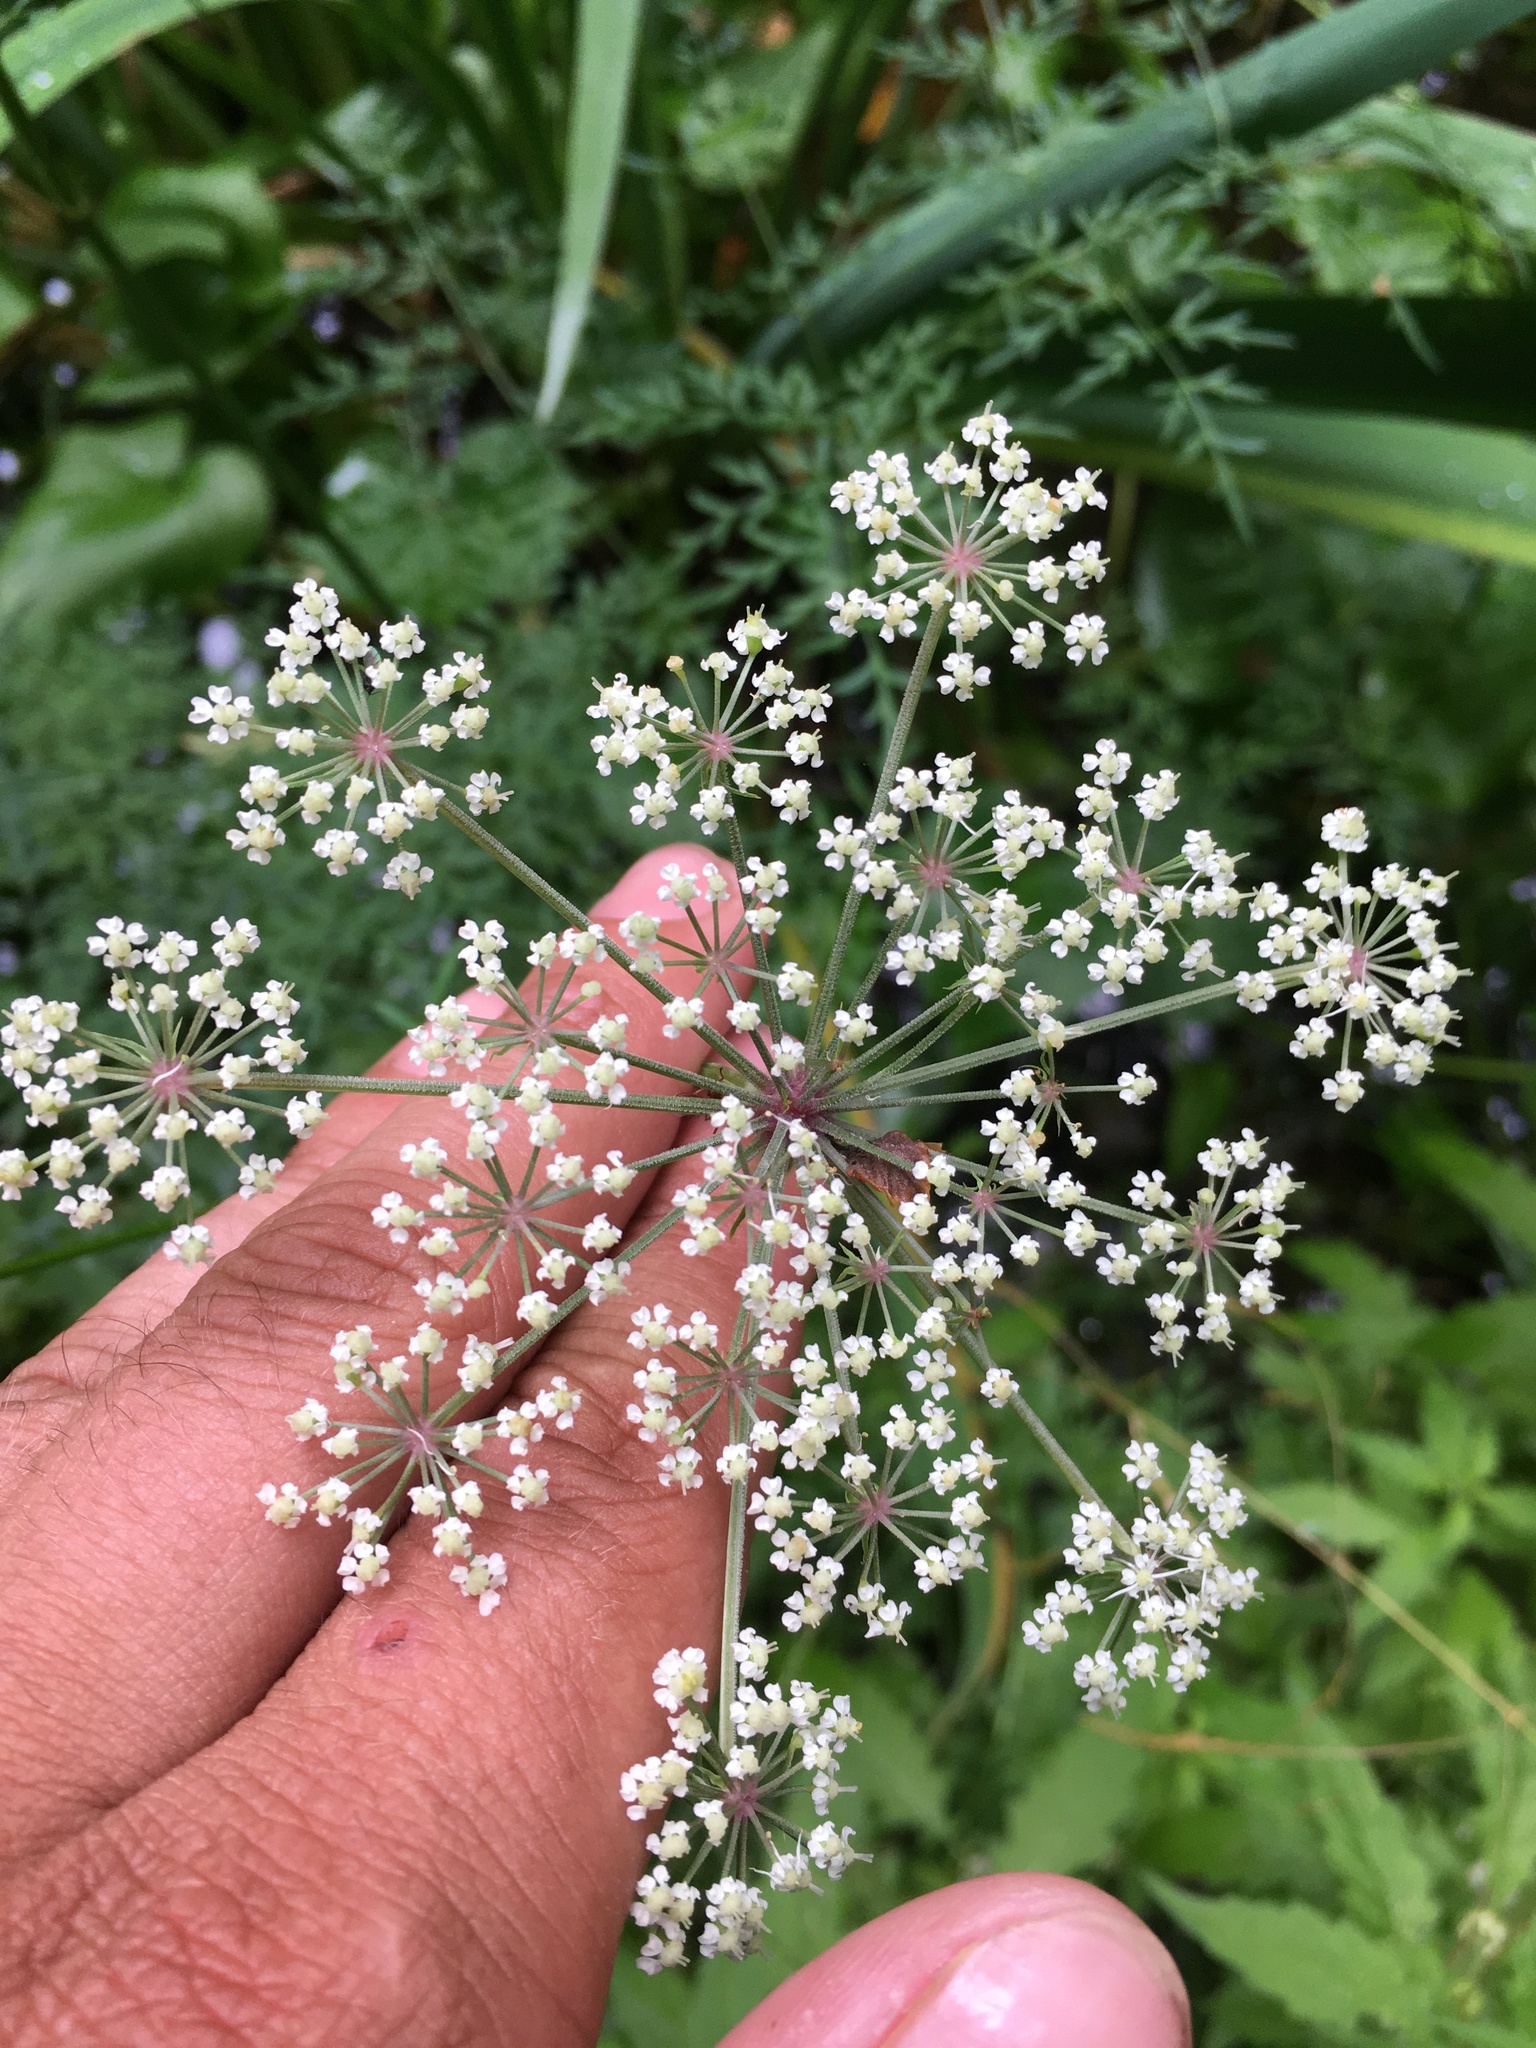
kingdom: Plantae
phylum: Tracheophyta
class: Magnoliopsida
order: Apiales
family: Apiaceae
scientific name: Apiaceae
